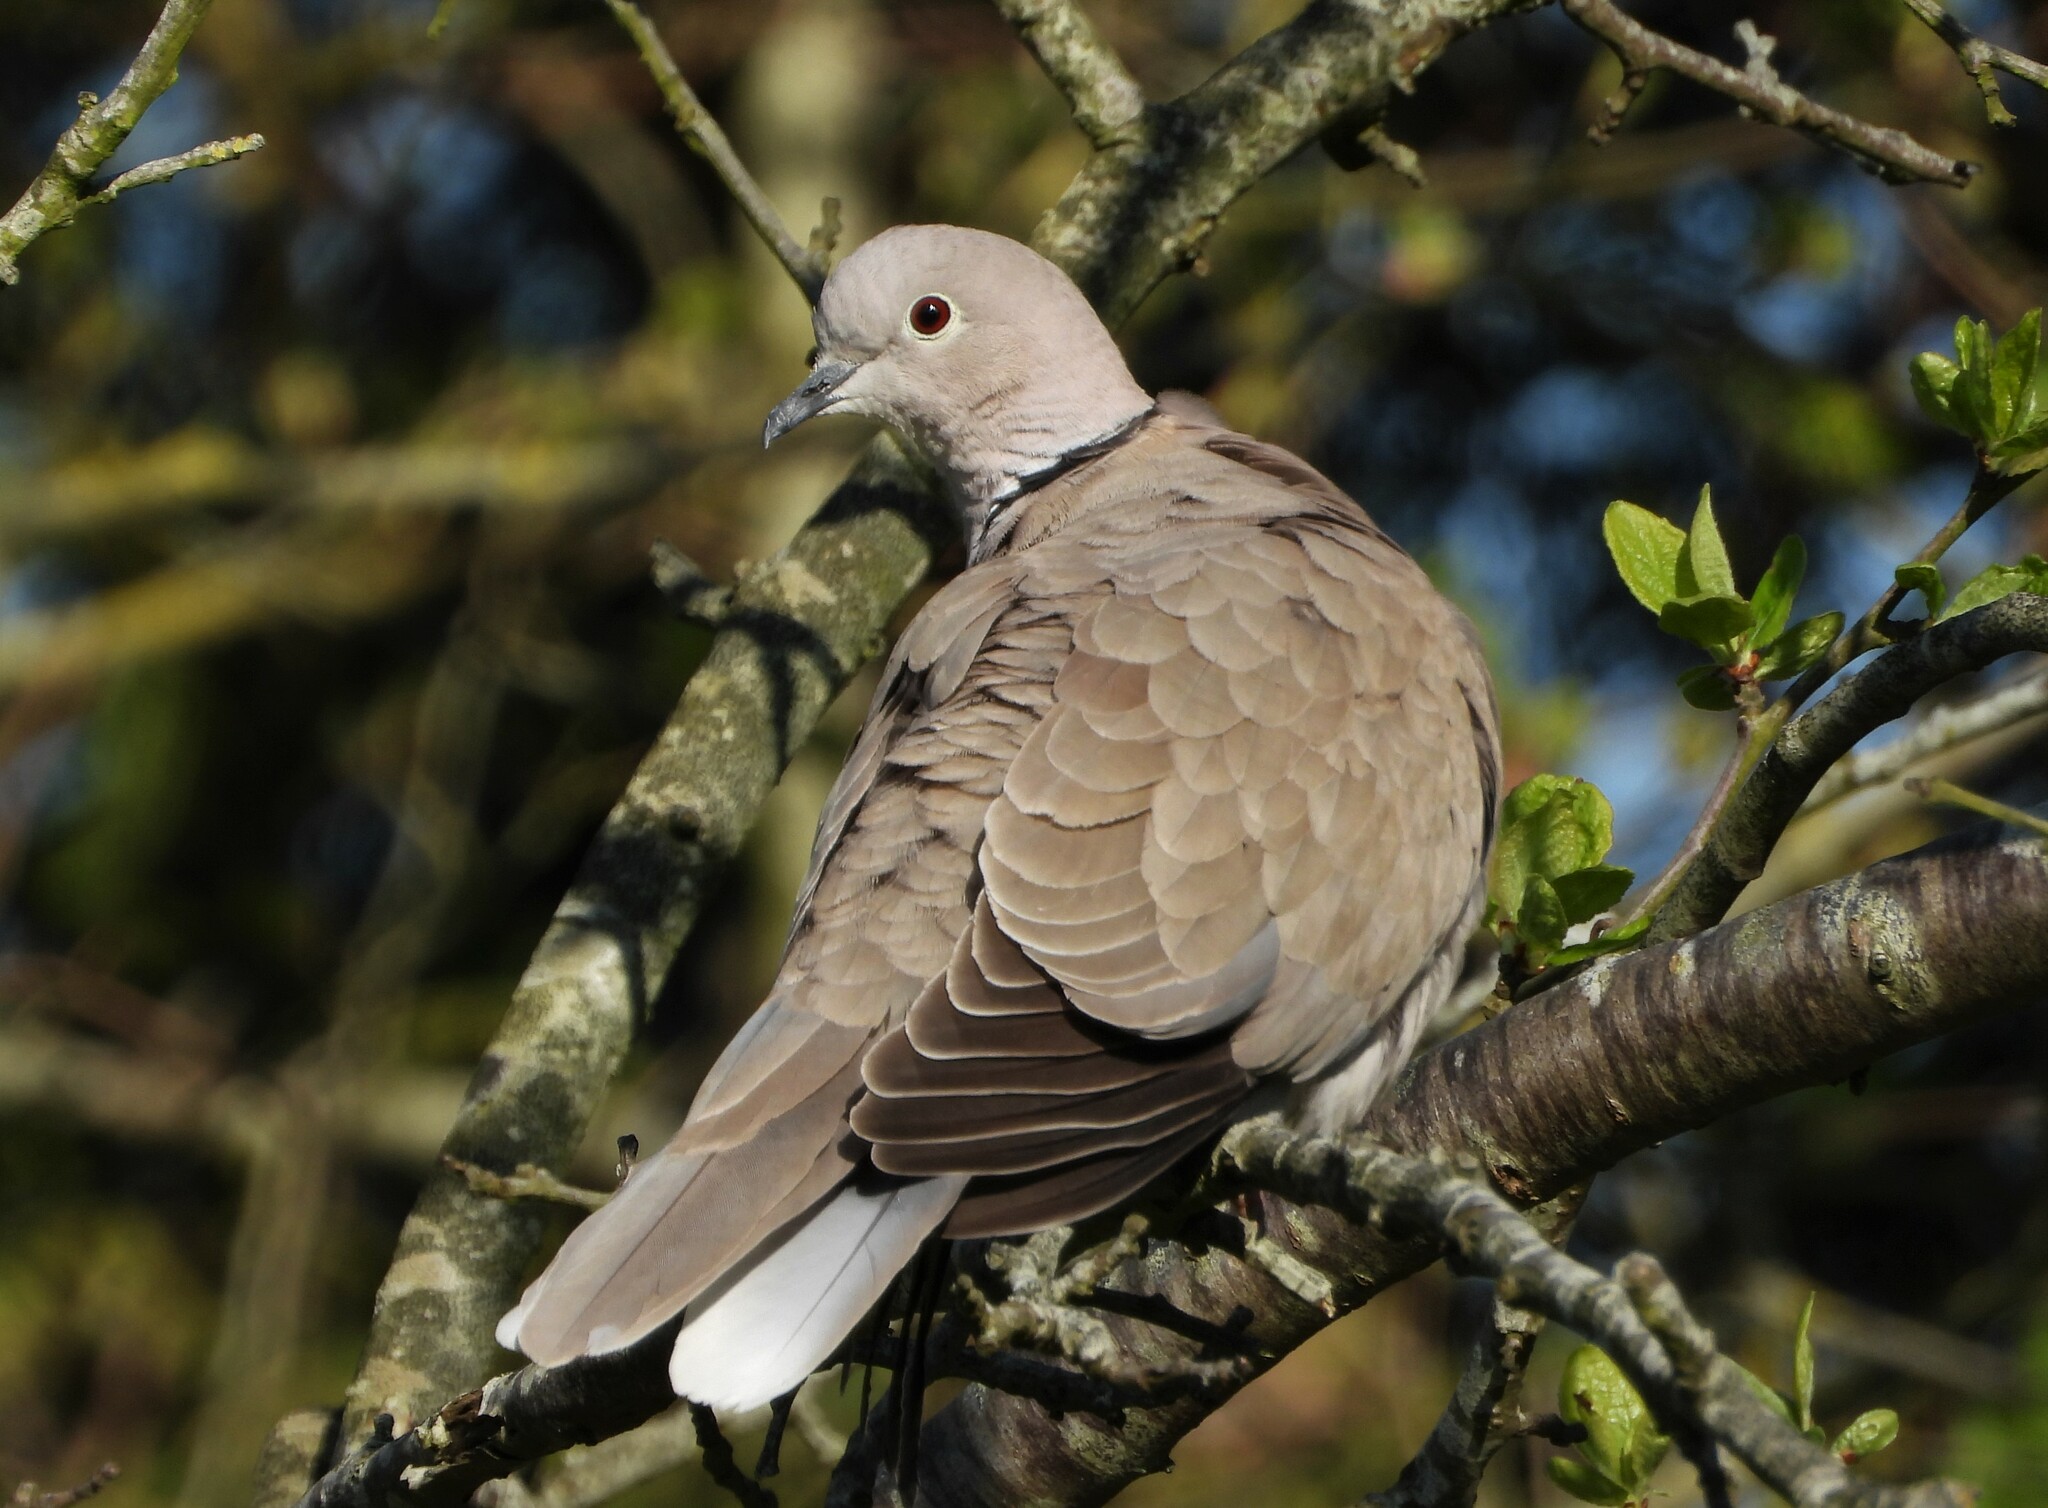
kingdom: Animalia
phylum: Chordata
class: Aves
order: Columbiformes
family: Columbidae
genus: Streptopelia
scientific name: Streptopelia decaocto
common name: Eurasian collared dove
